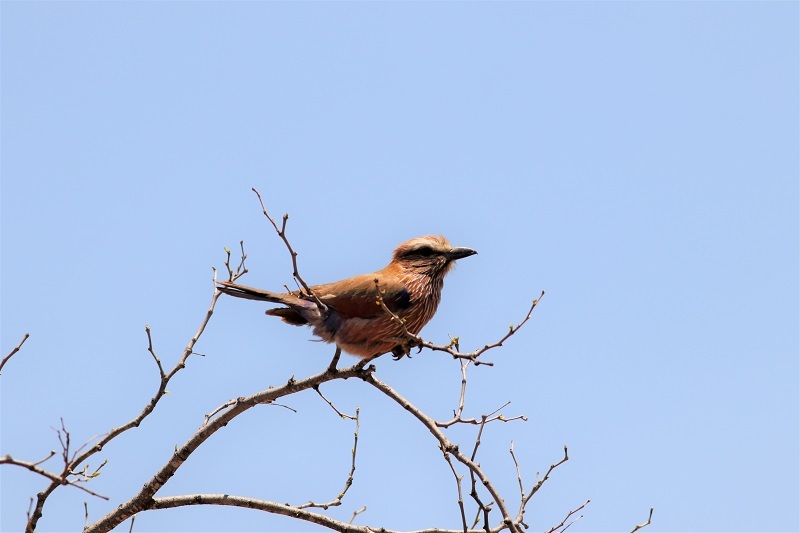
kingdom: Animalia
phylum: Chordata
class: Aves
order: Coraciiformes
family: Coraciidae
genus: Coracias
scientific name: Coracias naevius
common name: Purple roller
